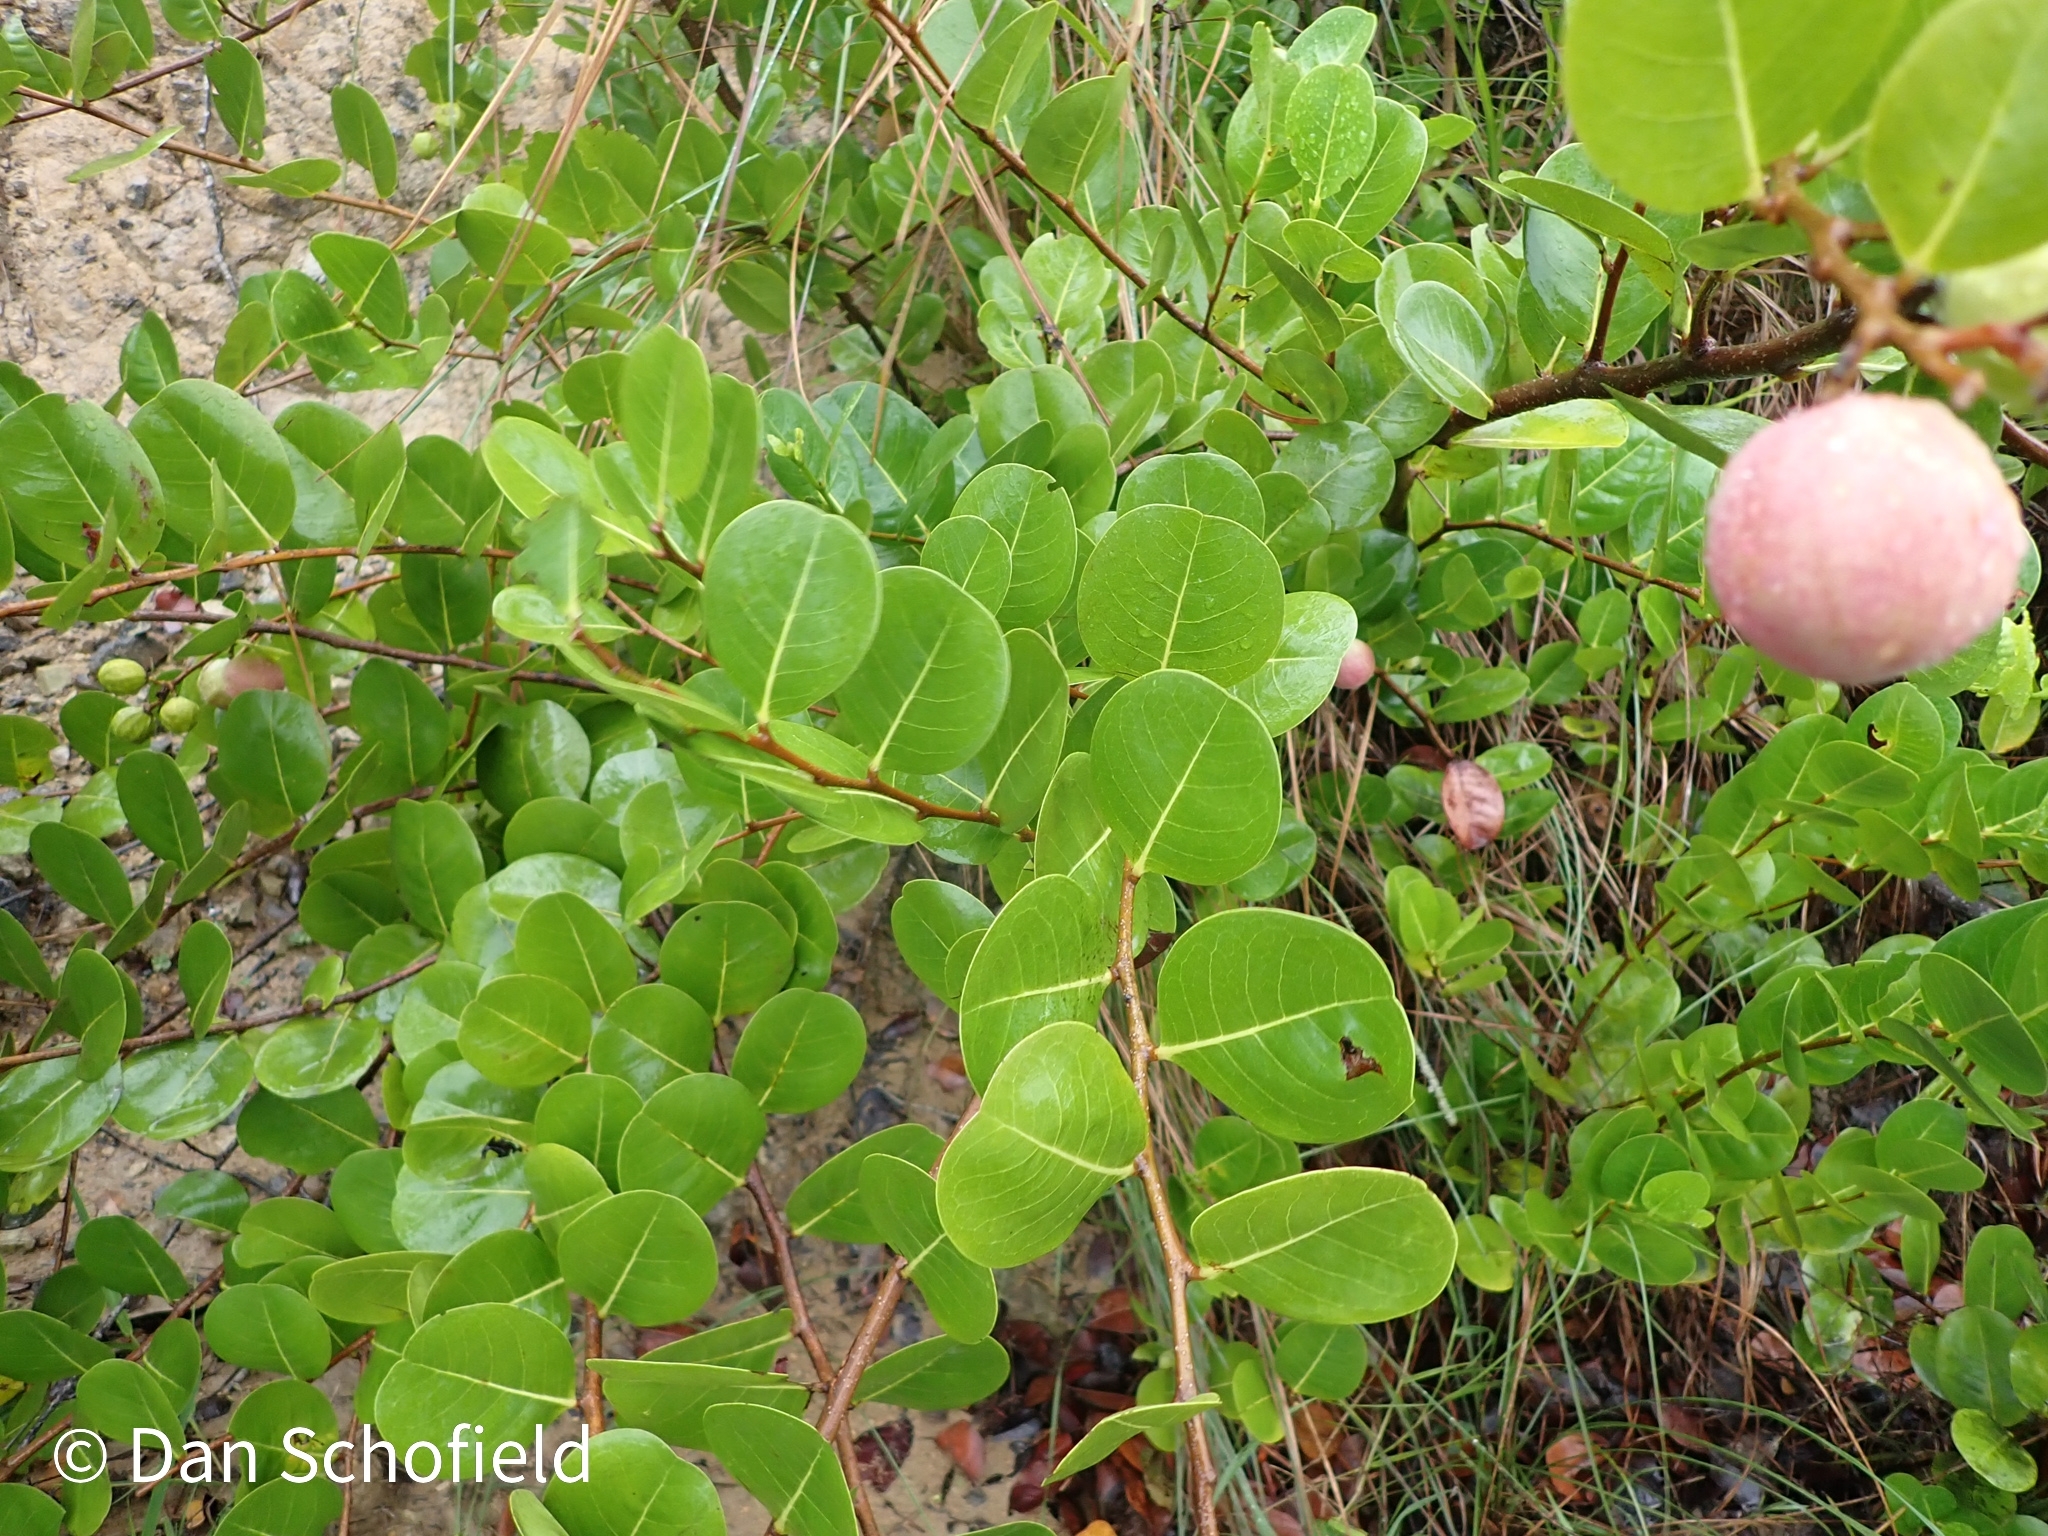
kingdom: Plantae
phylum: Tracheophyta
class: Magnoliopsida
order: Malpighiales
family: Chrysobalanaceae
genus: Chrysobalanus
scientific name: Chrysobalanus icaco
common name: Coco plum
